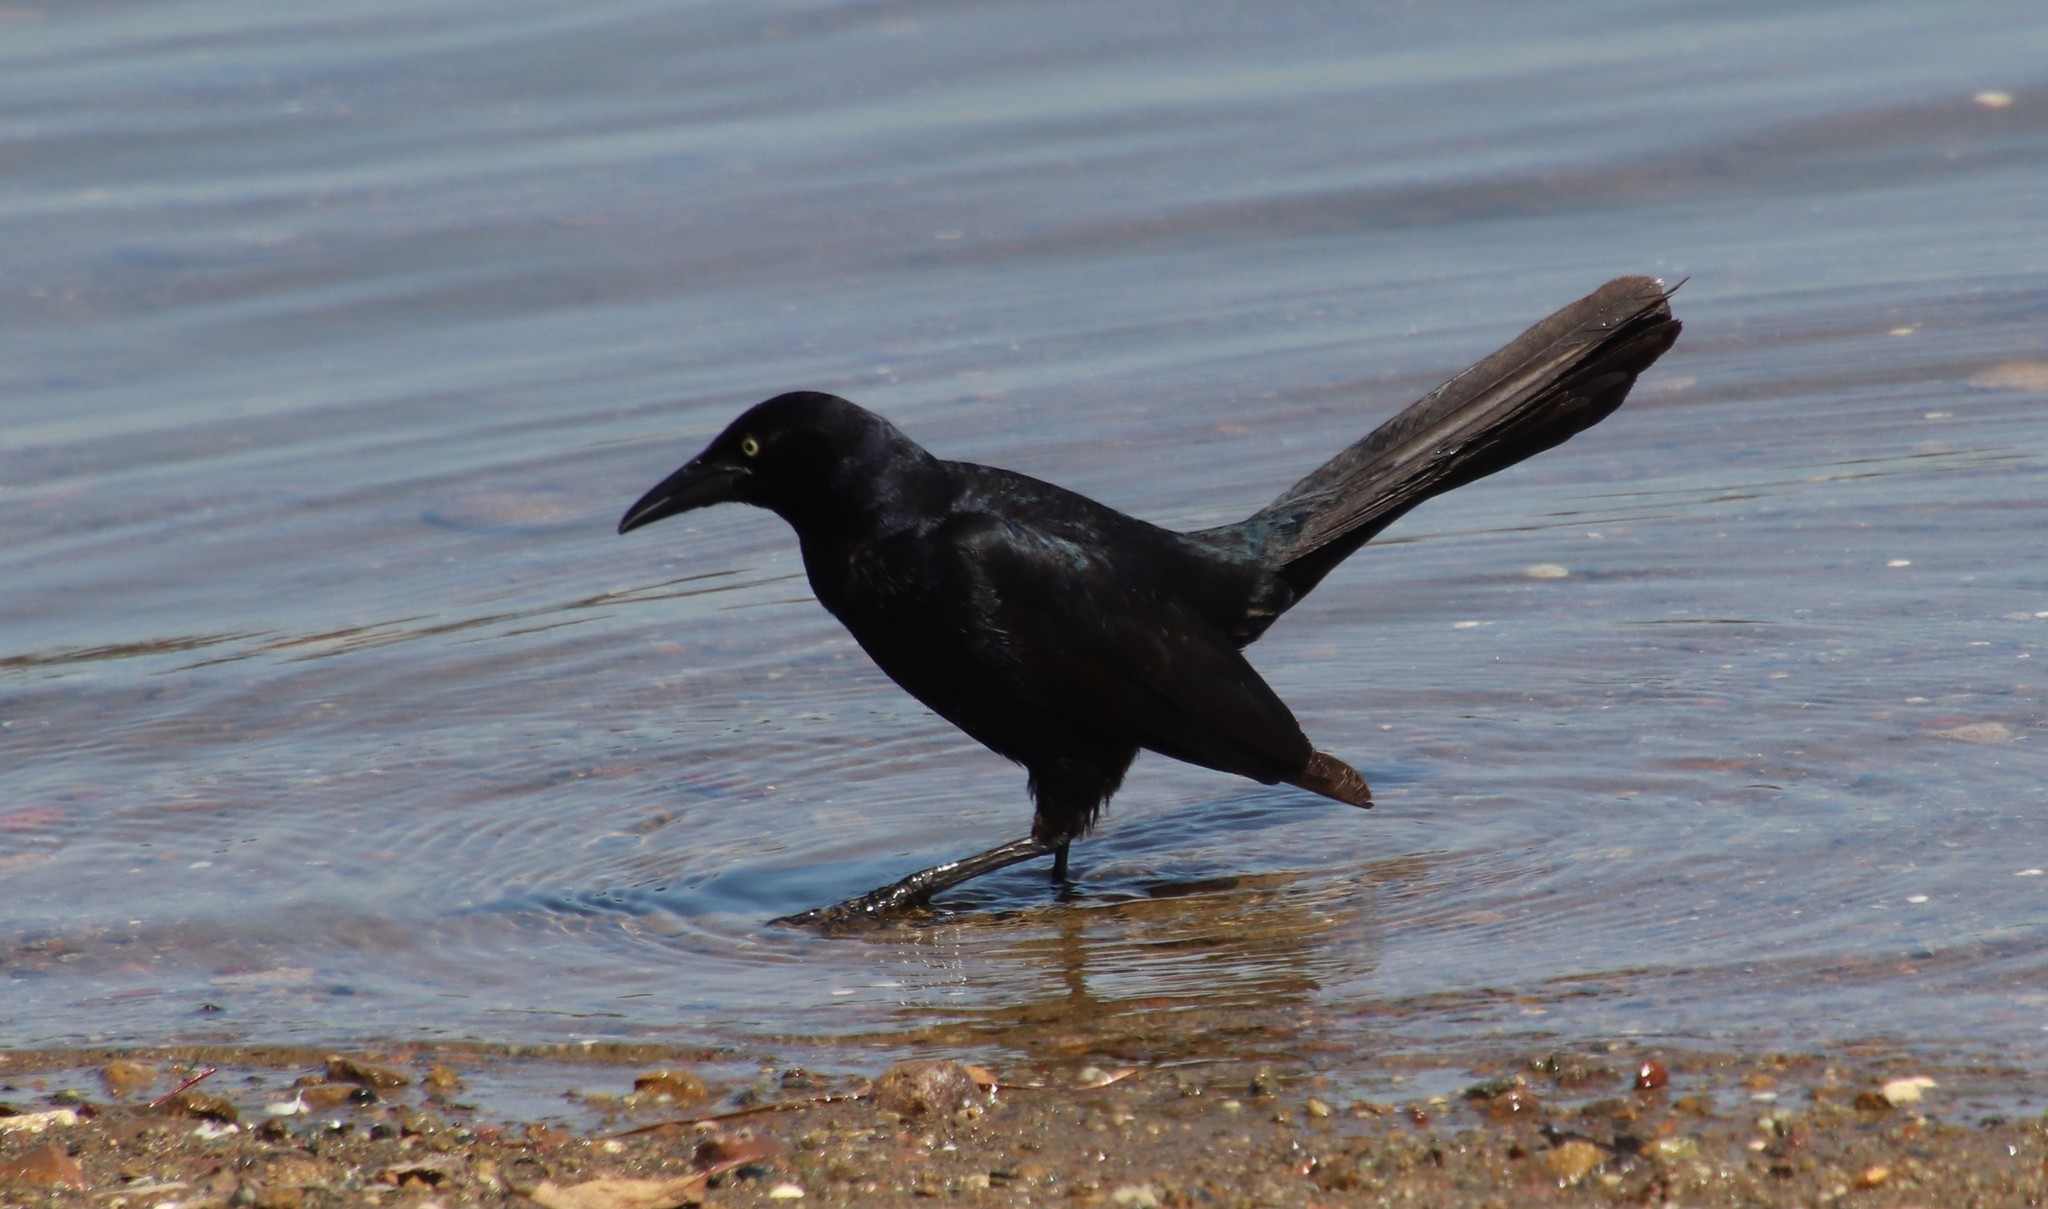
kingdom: Animalia
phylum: Chordata
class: Aves
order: Passeriformes
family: Icteridae
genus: Quiscalus
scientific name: Quiscalus mexicanus
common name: Great-tailed grackle
